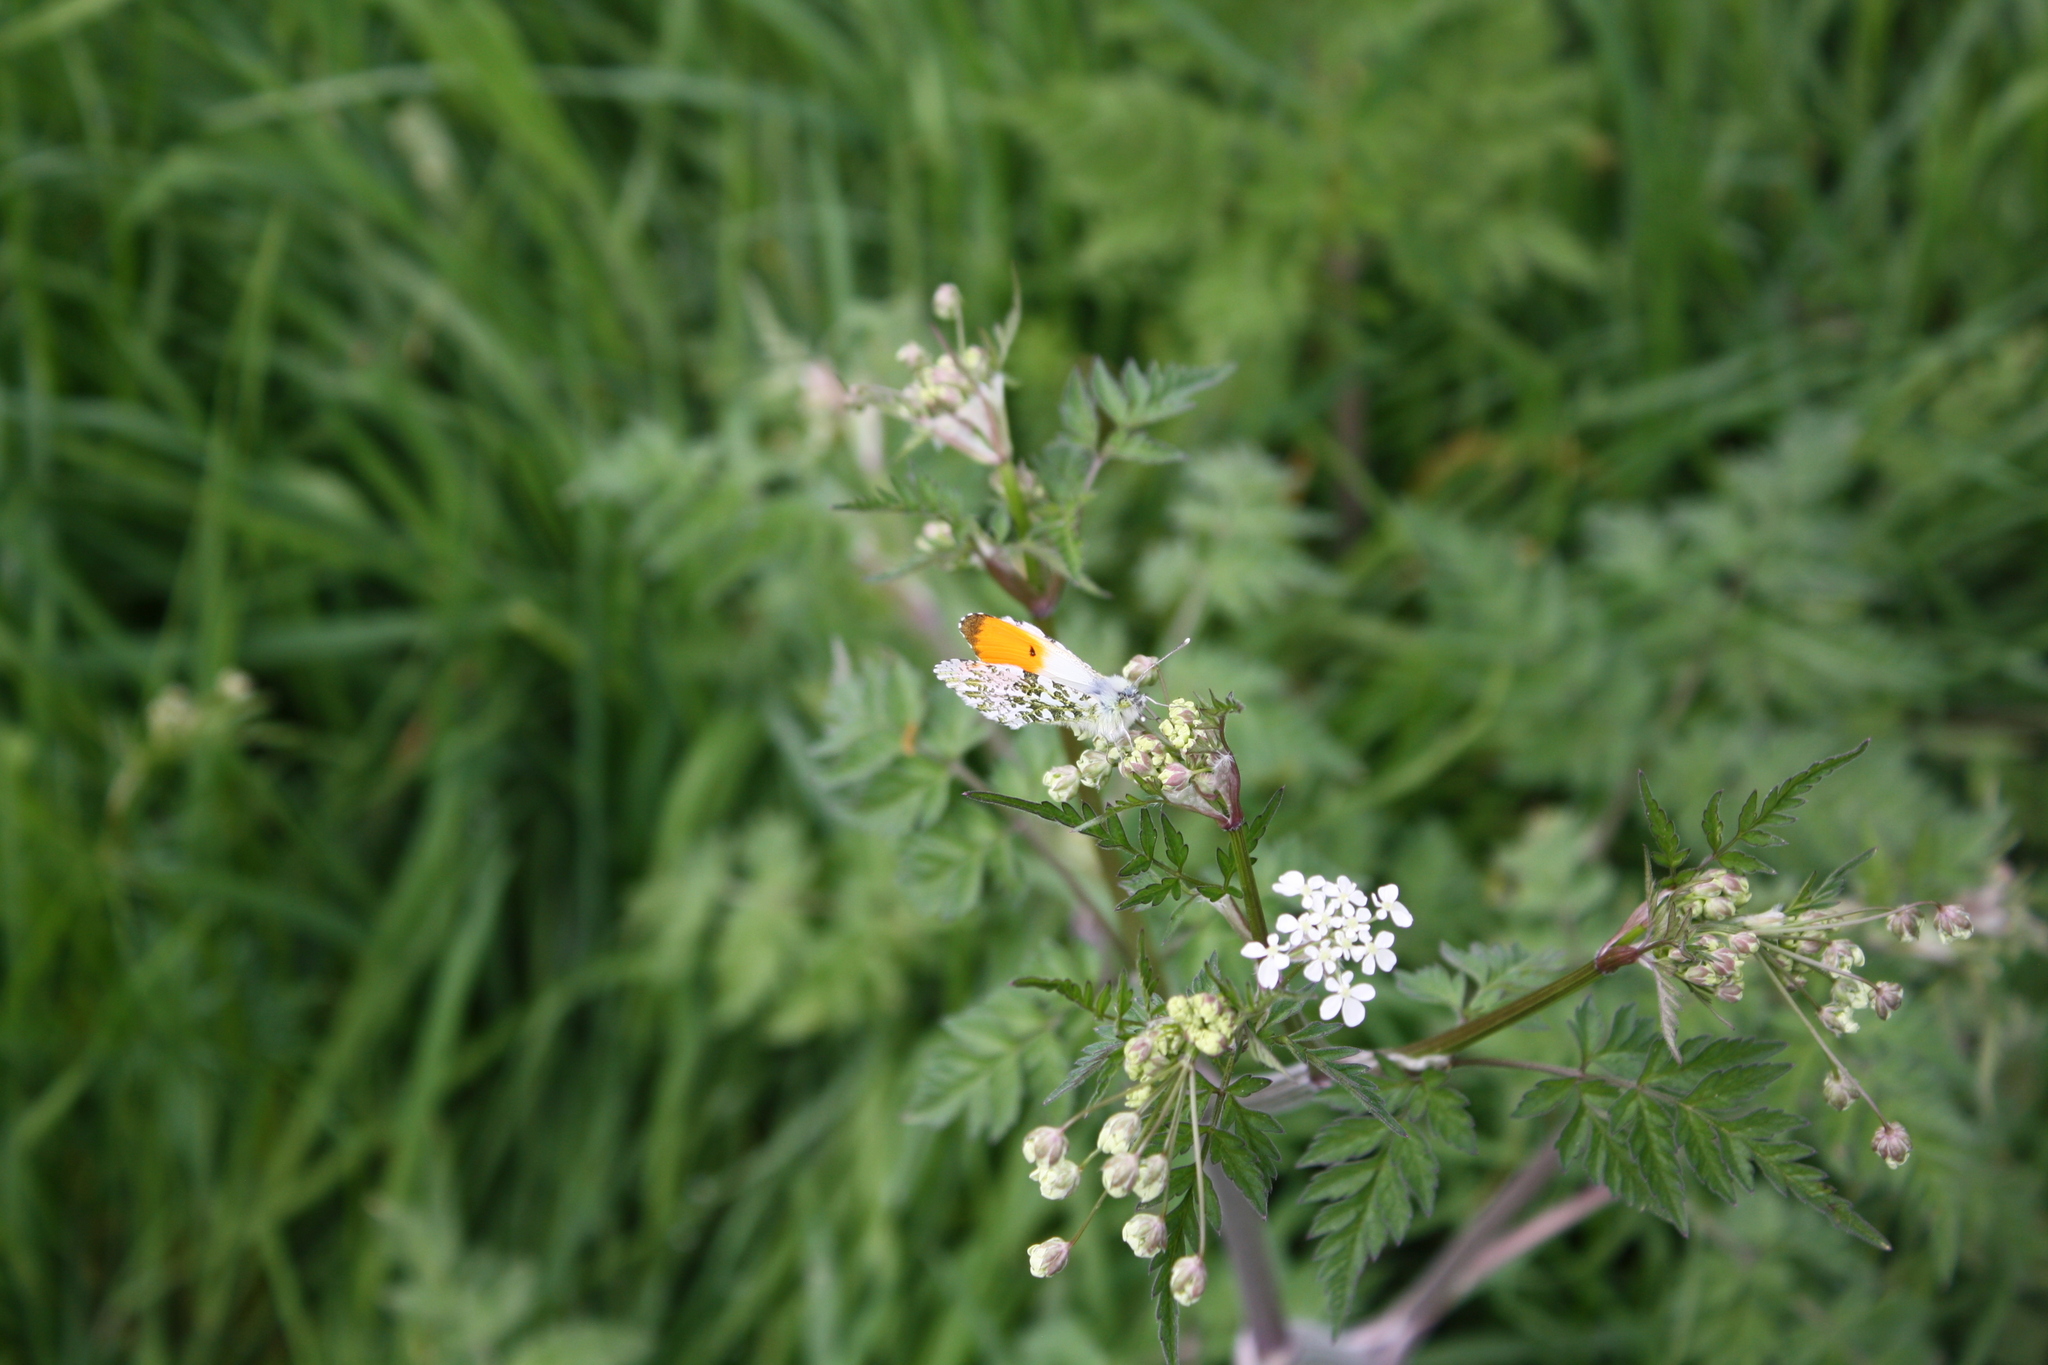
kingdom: Animalia
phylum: Arthropoda
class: Insecta
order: Lepidoptera
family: Pieridae
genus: Anthocharis
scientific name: Anthocharis cardamines
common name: Orange-tip
